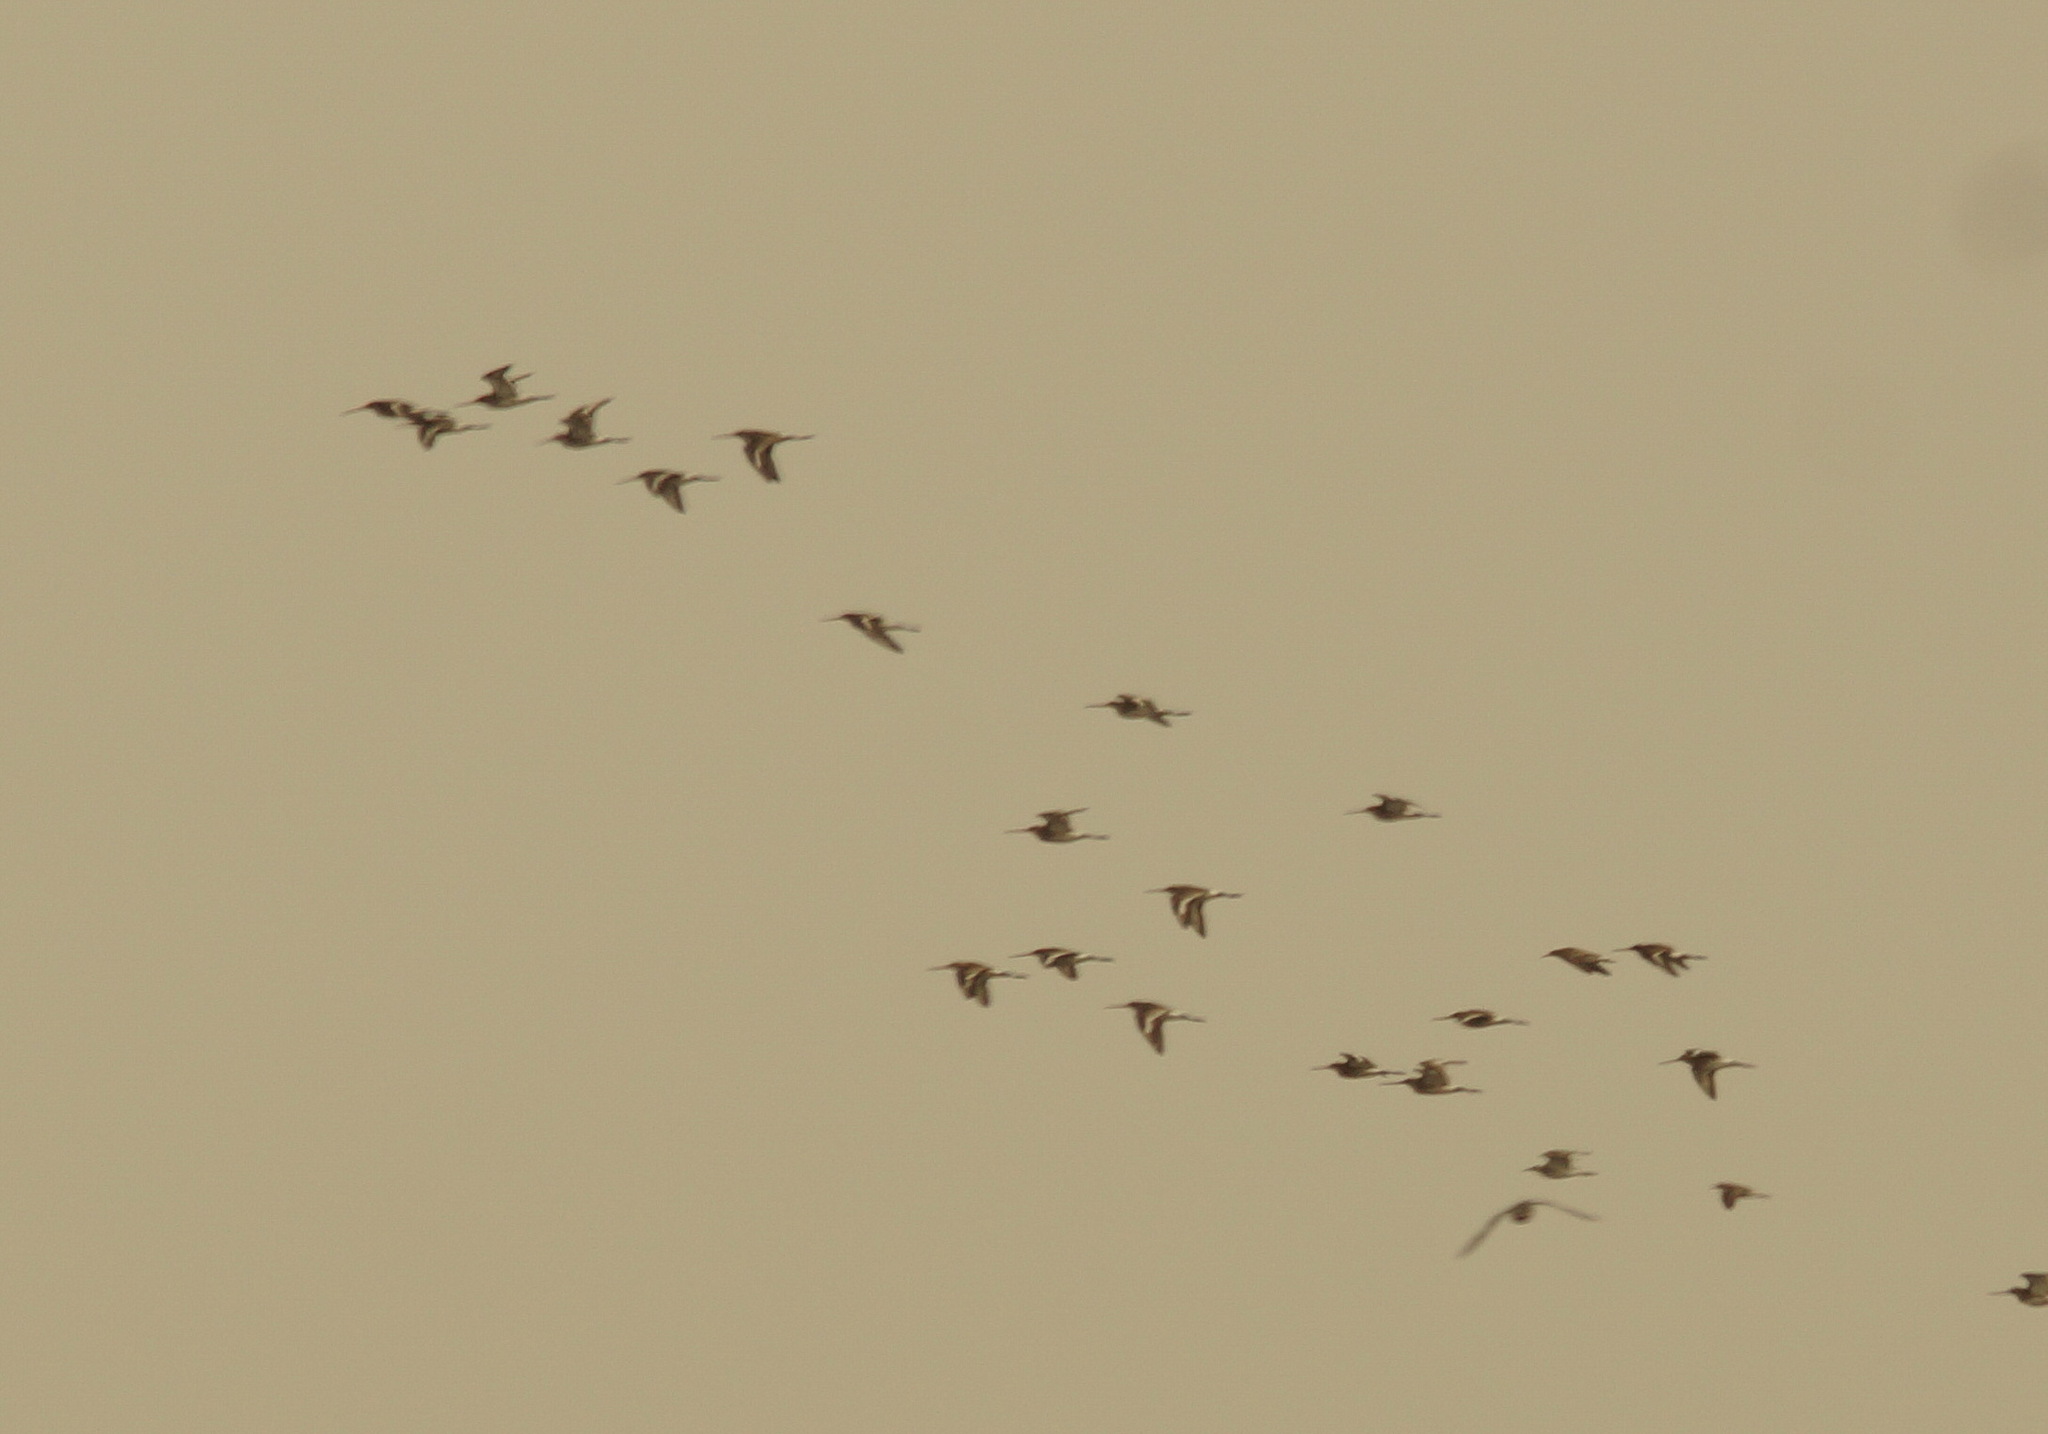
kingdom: Animalia
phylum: Chordata
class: Aves
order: Charadriiformes
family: Scolopacidae
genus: Limosa
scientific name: Limosa limosa
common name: Black-tailed godwit
